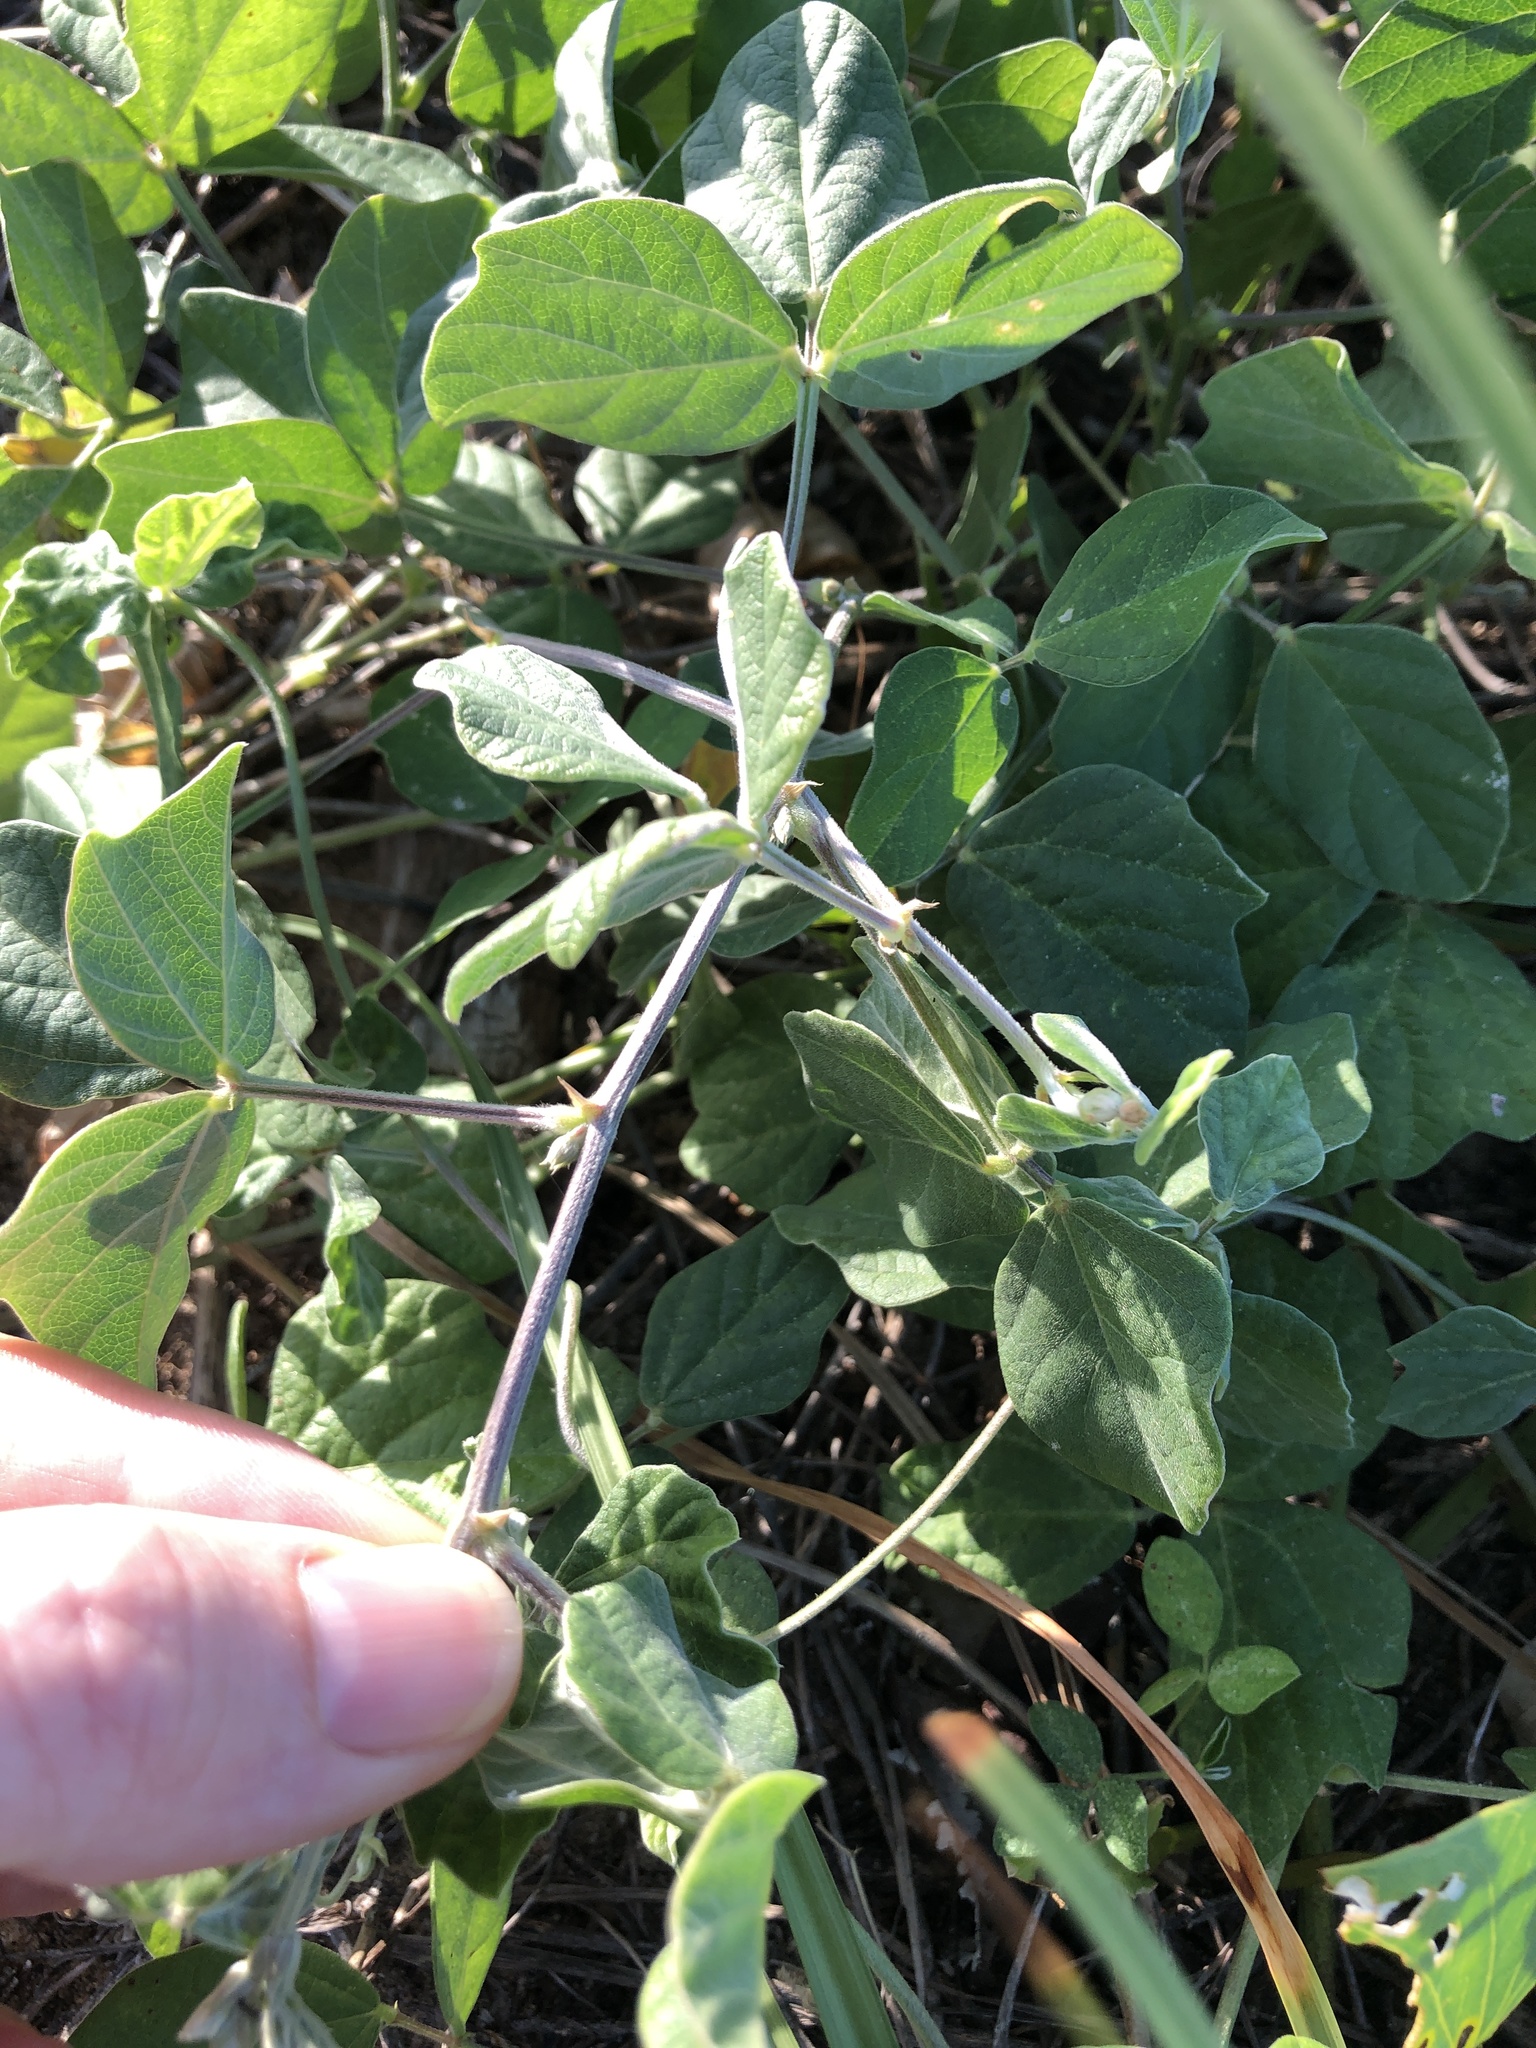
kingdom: Plantae
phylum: Tracheophyta
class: Magnoliopsida
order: Fabales
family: Fabaceae
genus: Macroptilium
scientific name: Macroptilium atropurpureum
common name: Purple bushbean
